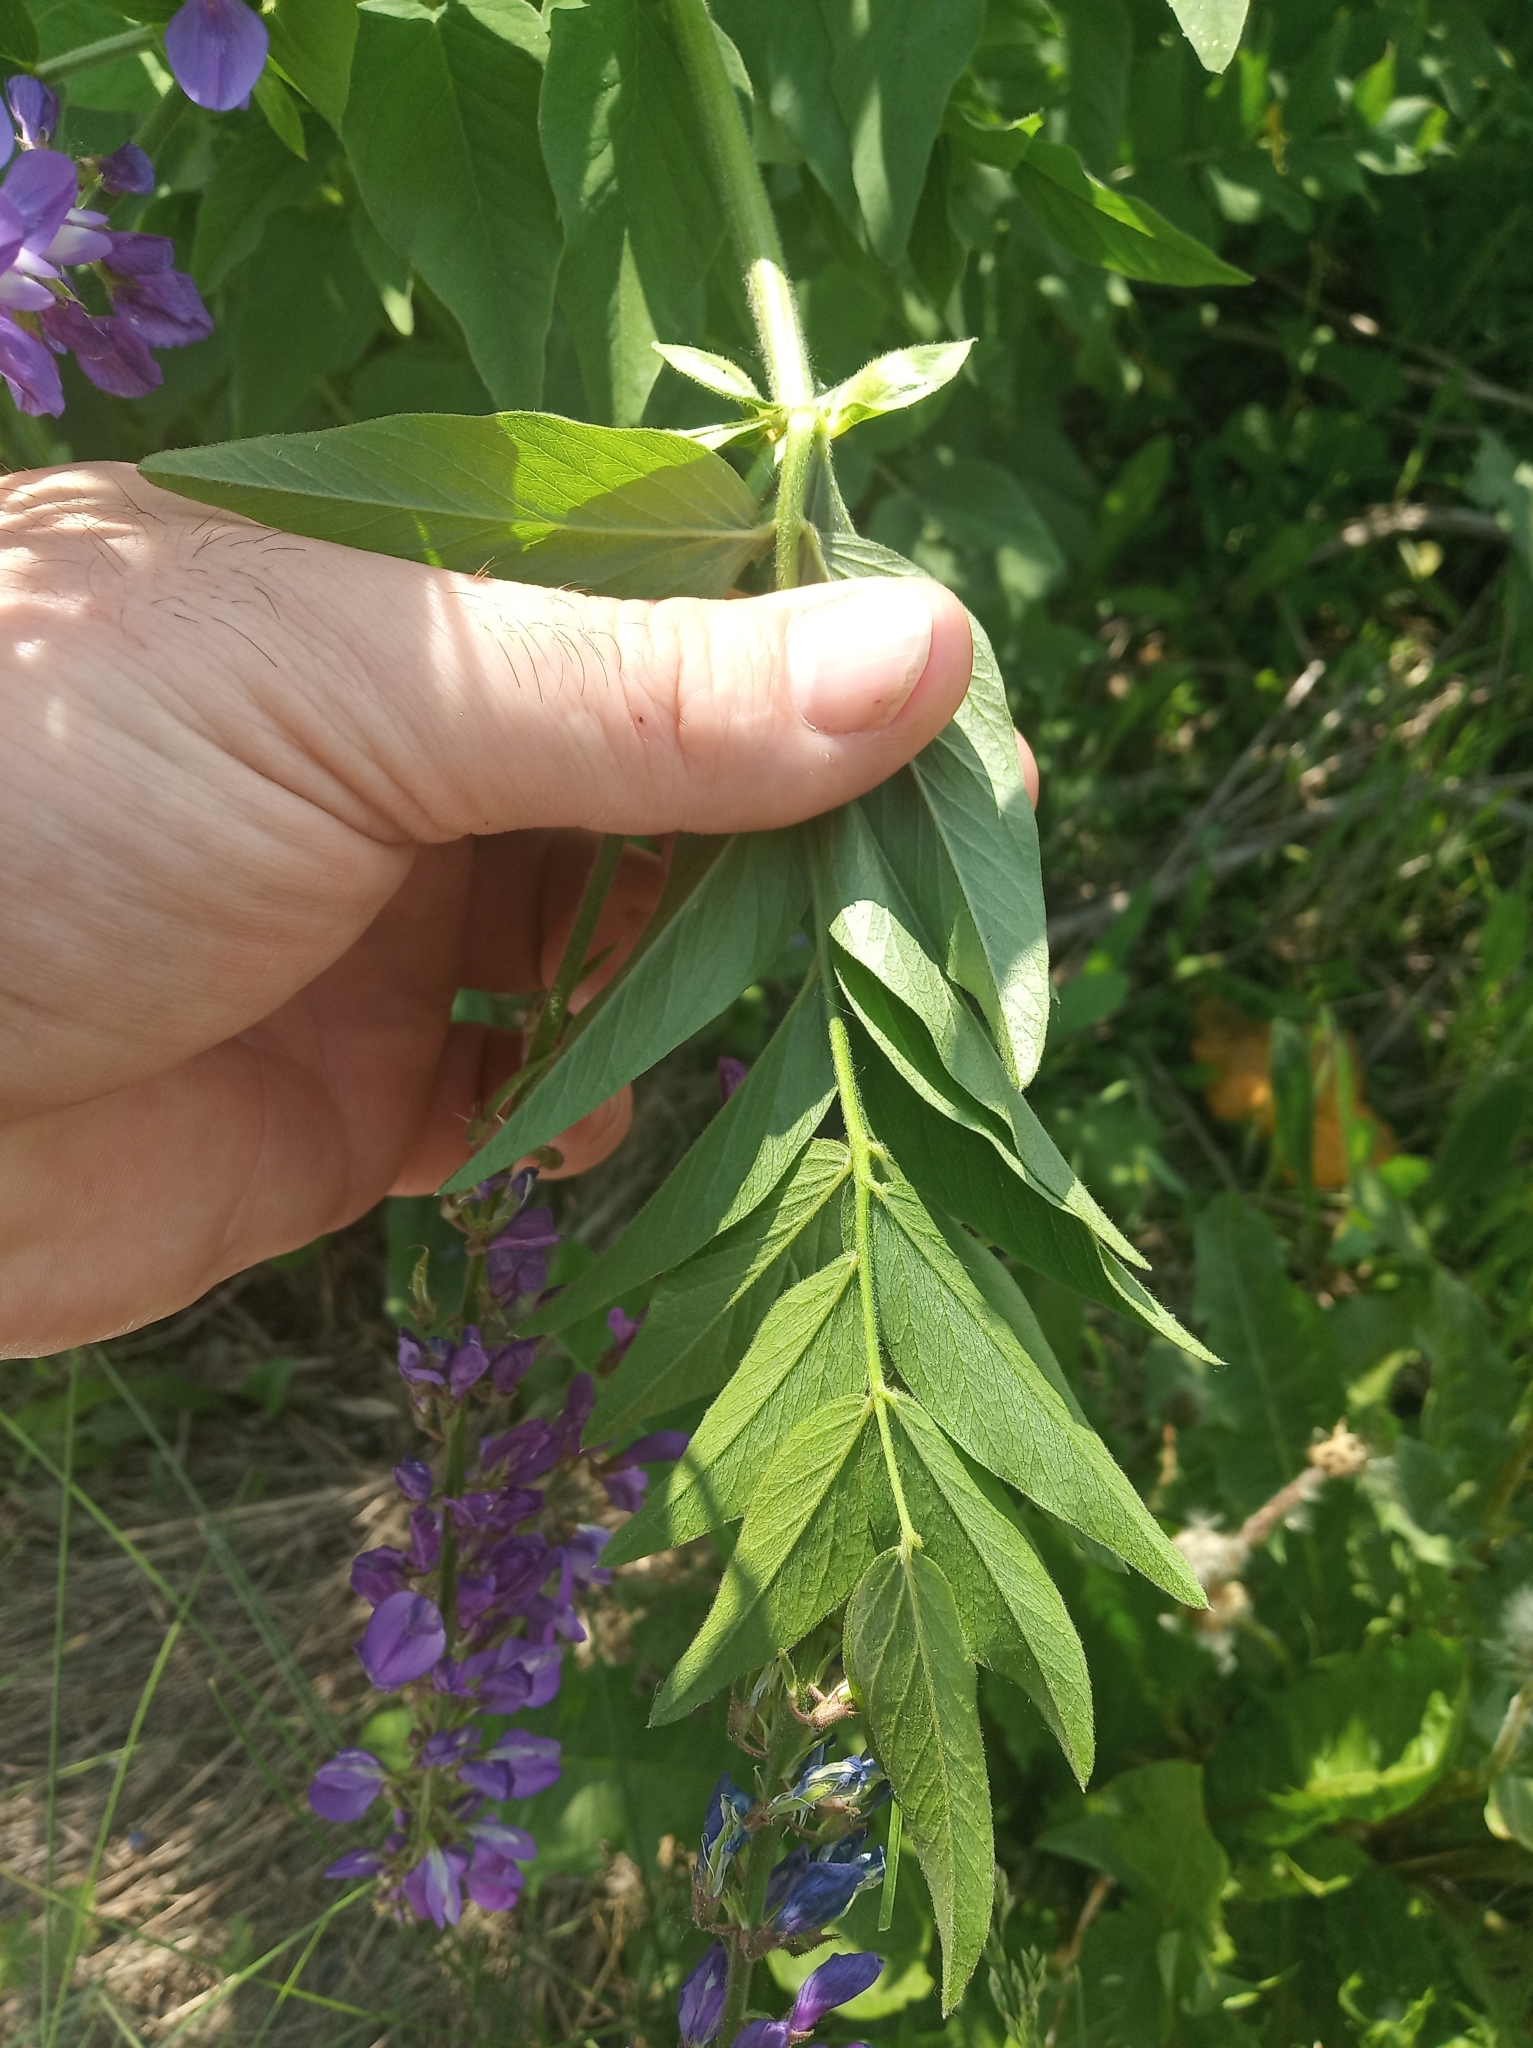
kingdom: Plantae
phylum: Tracheophyta
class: Magnoliopsida
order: Fabales
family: Fabaceae
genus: Galega
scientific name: Galega orientalis
